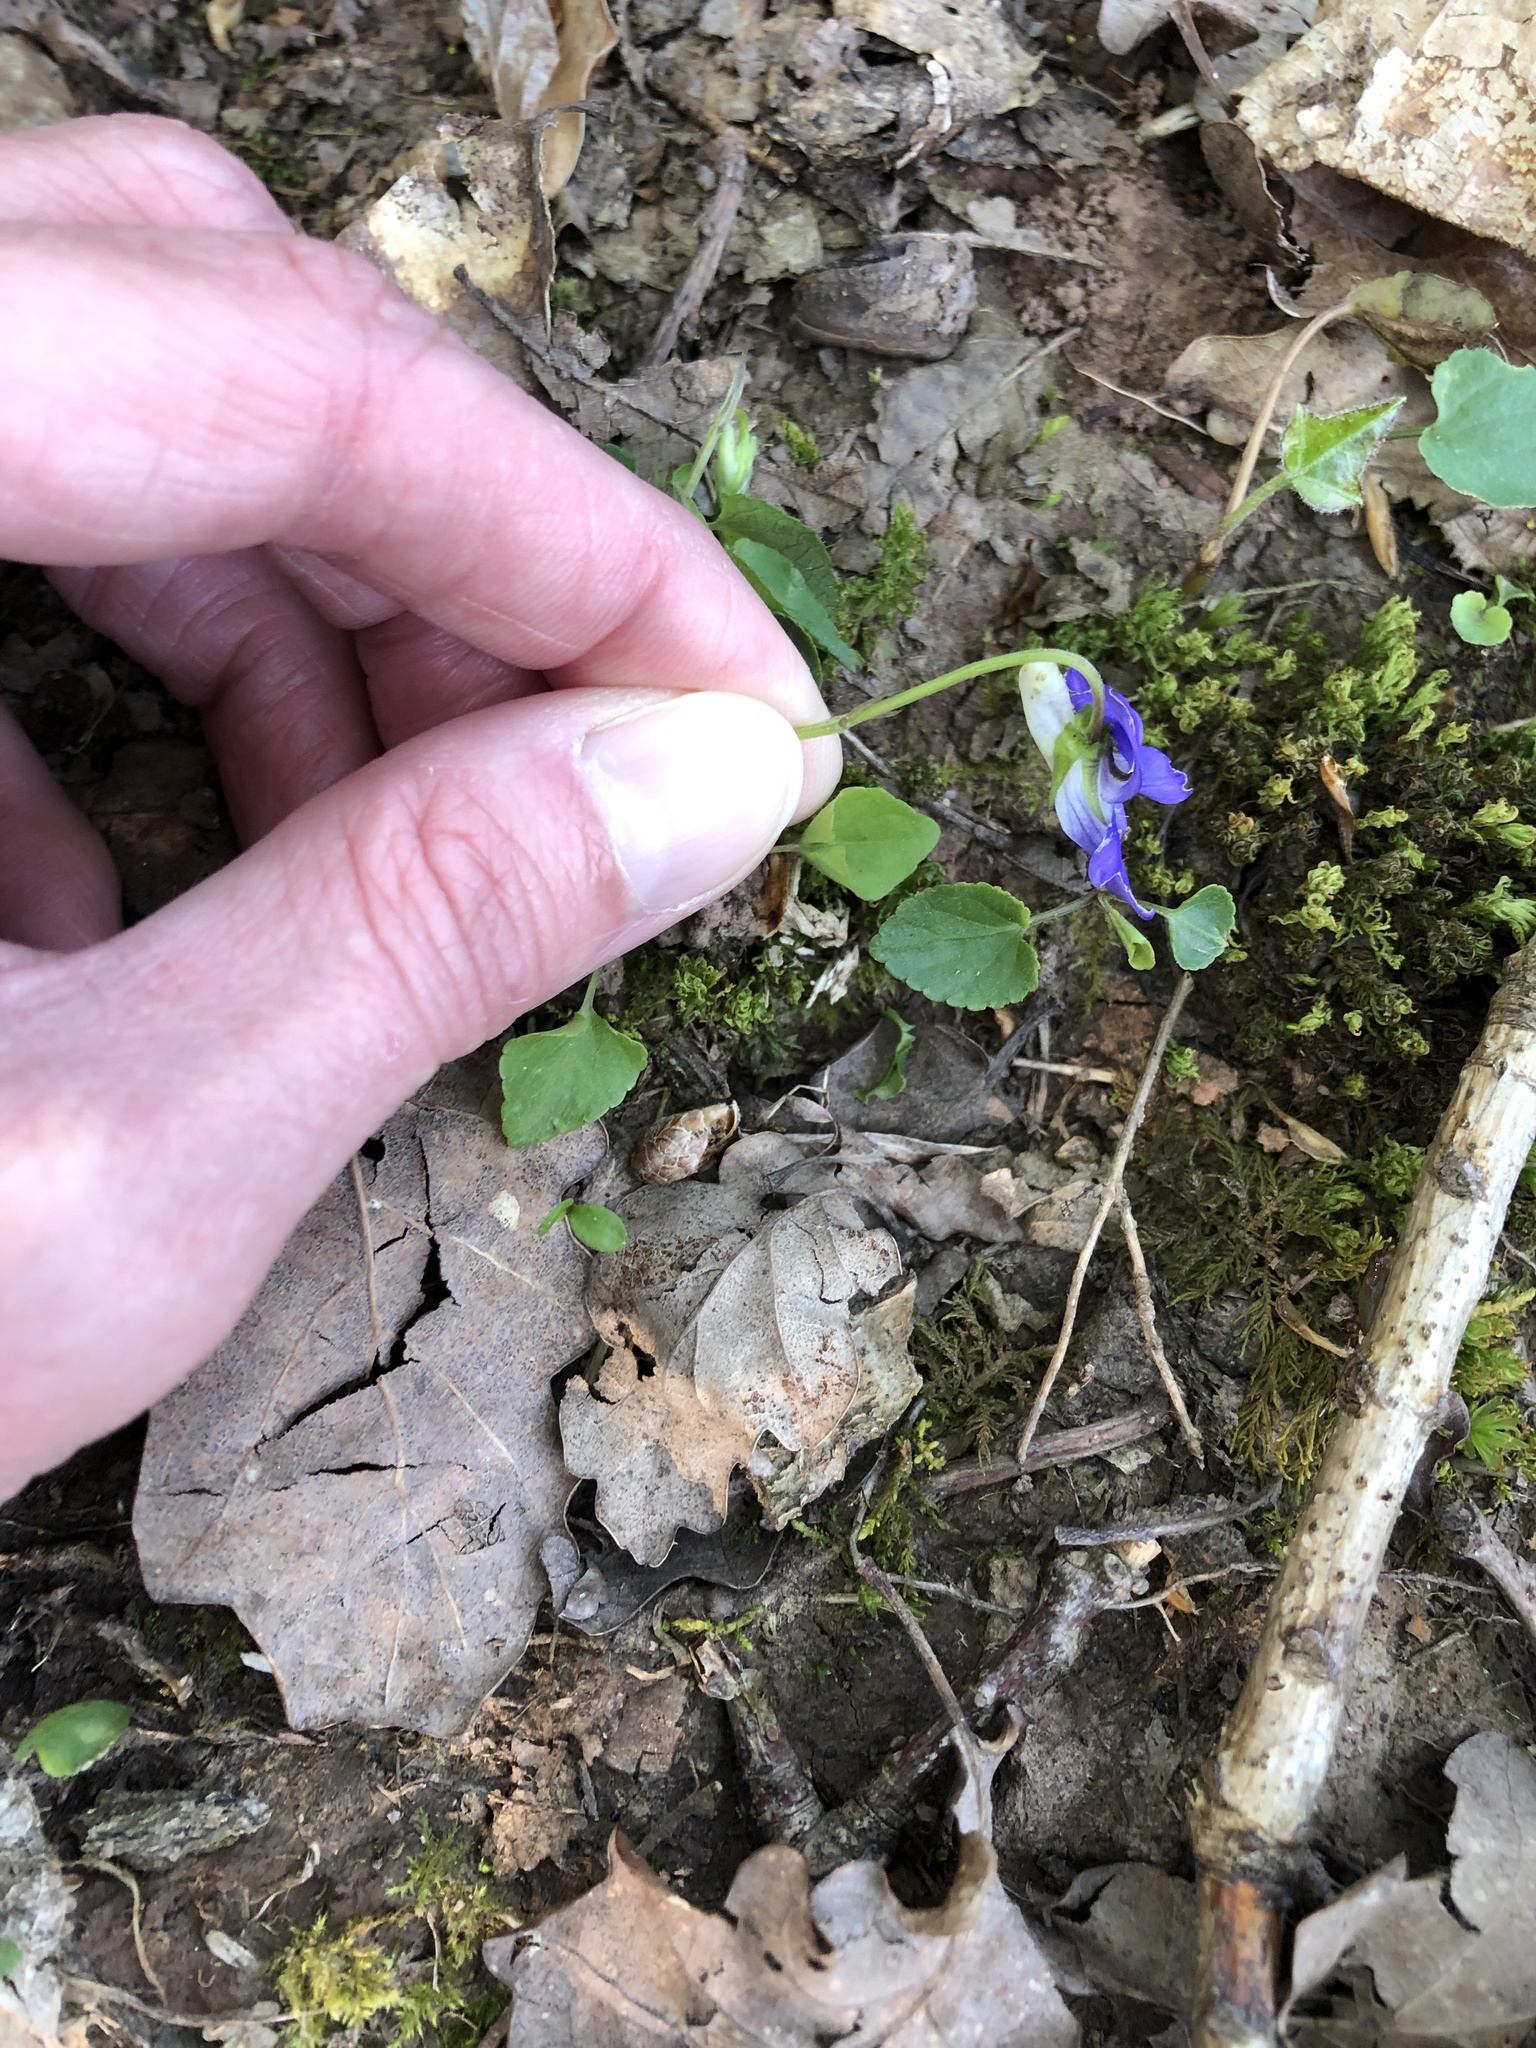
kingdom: Plantae
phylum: Tracheophyta
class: Magnoliopsida
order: Malpighiales
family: Violaceae
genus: Viola
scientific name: Viola riviniana
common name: Common dog-violet
